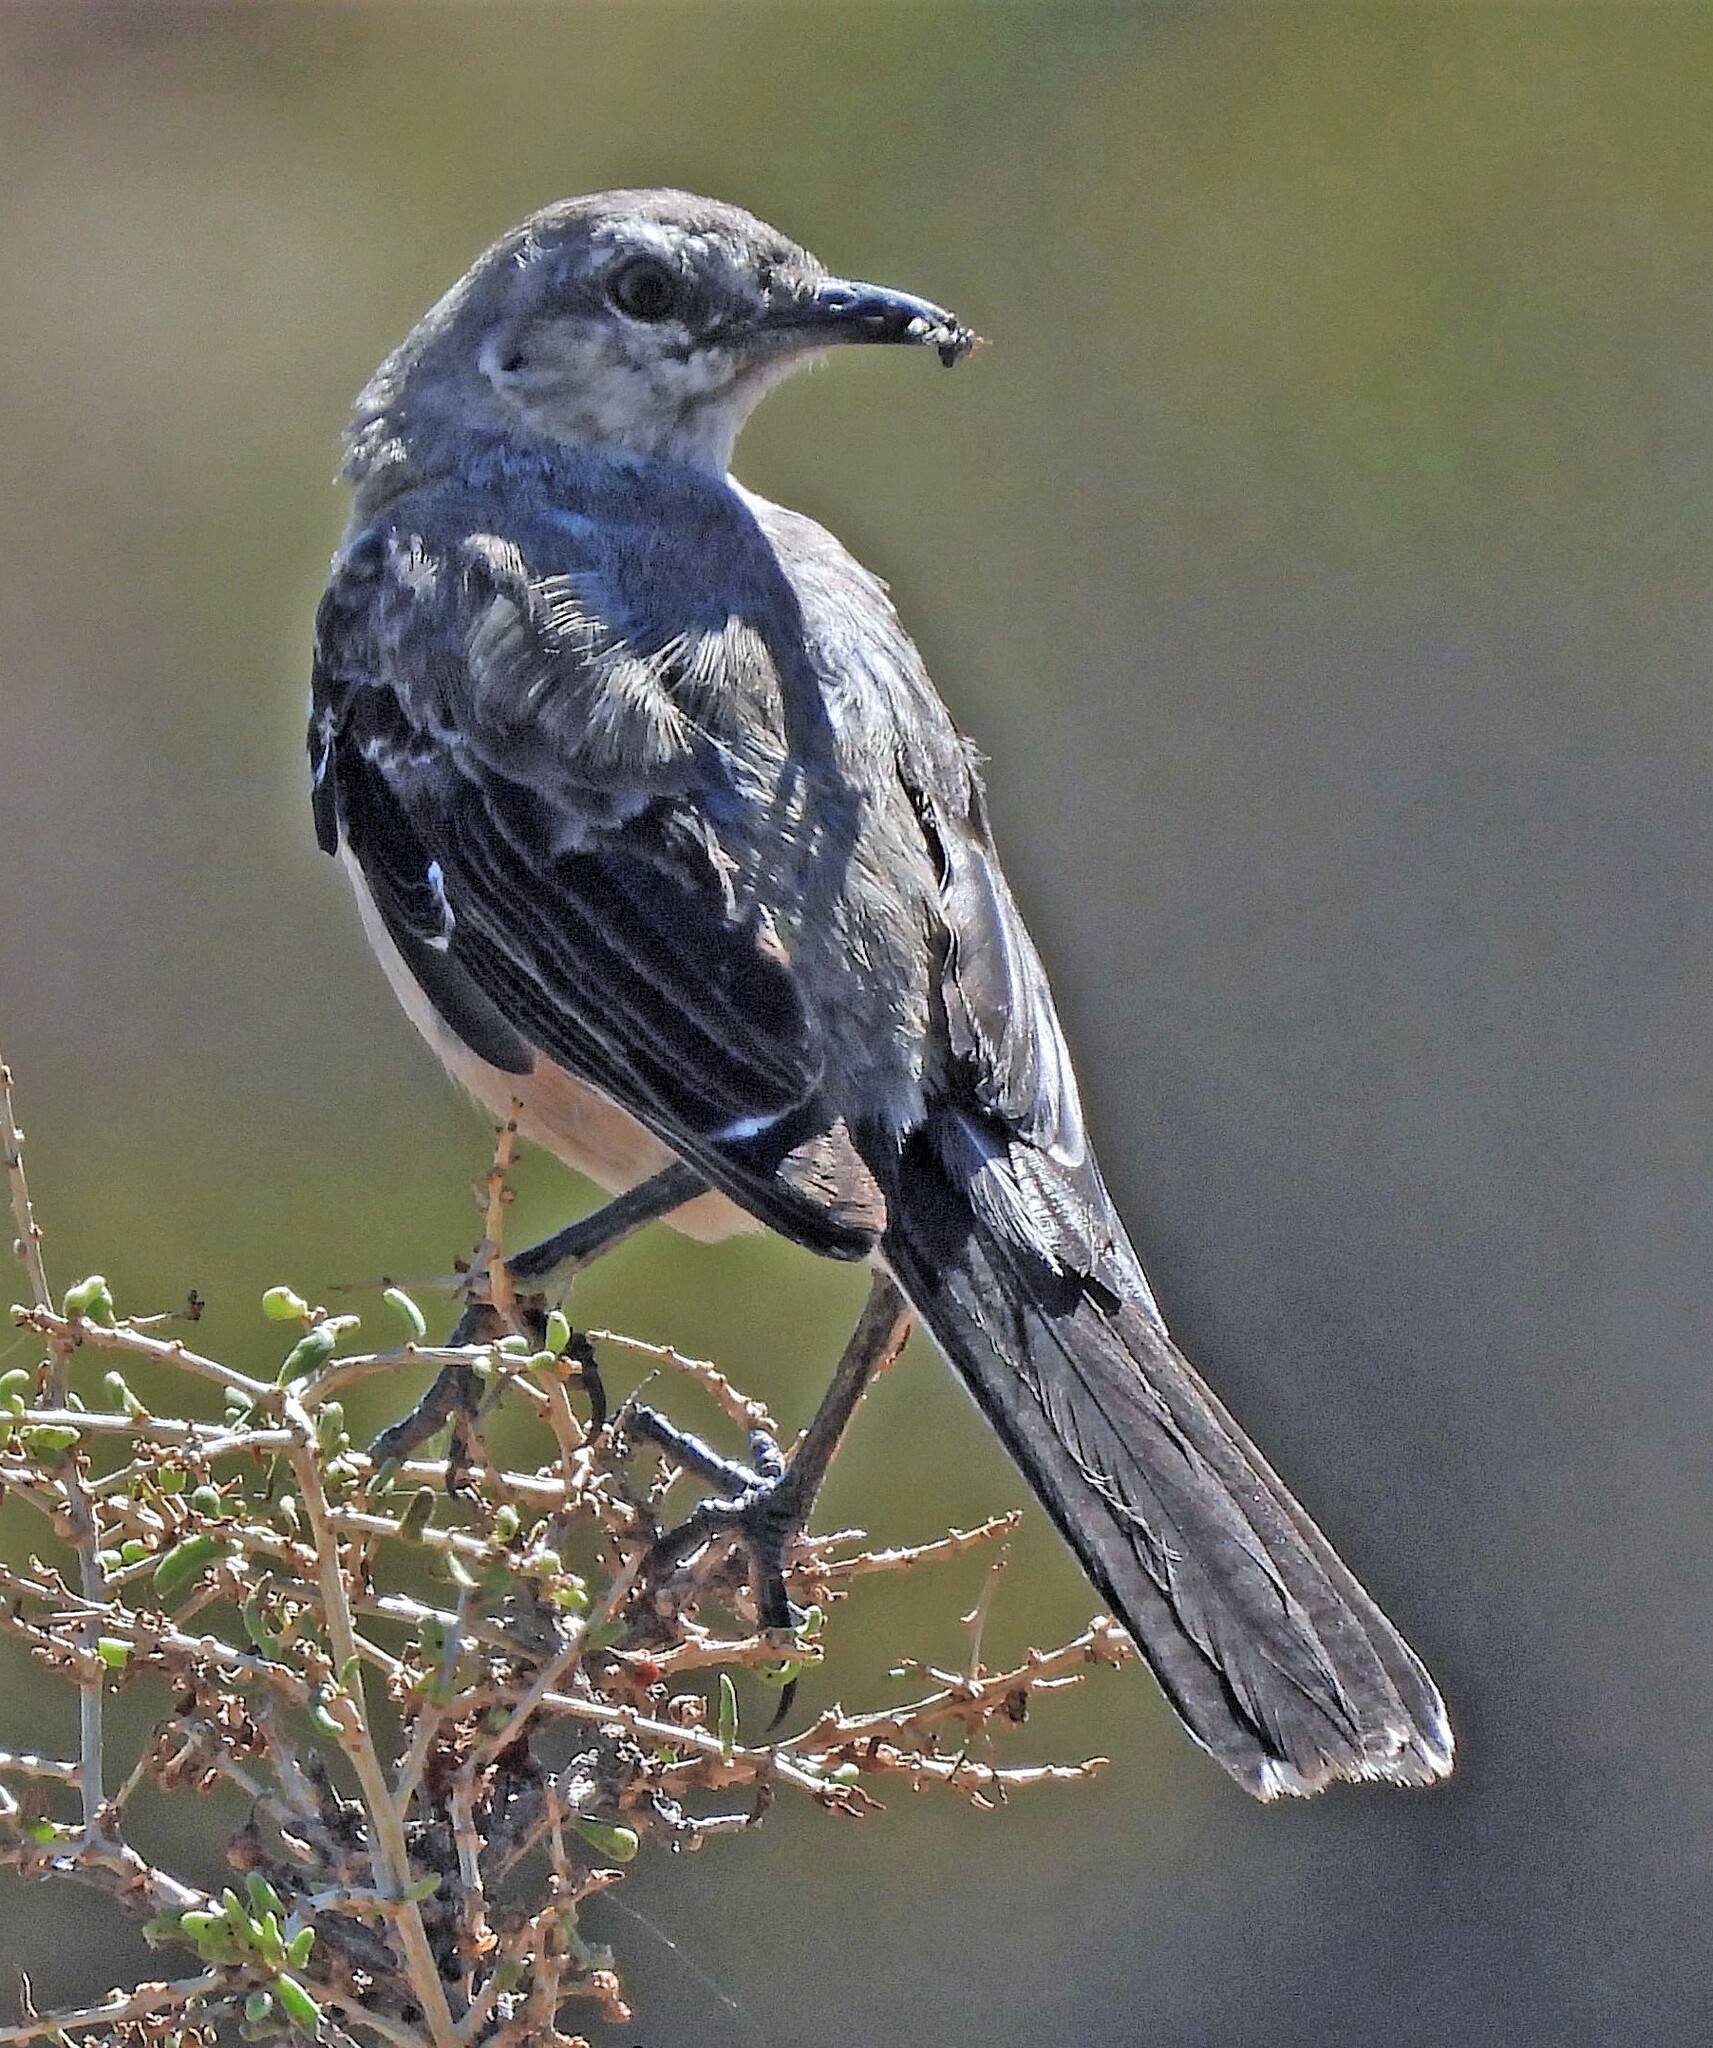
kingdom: Animalia
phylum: Chordata
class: Aves
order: Passeriformes
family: Mimidae
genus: Mimus
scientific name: Mimus patagonicus
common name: Patagonian mockingbird
